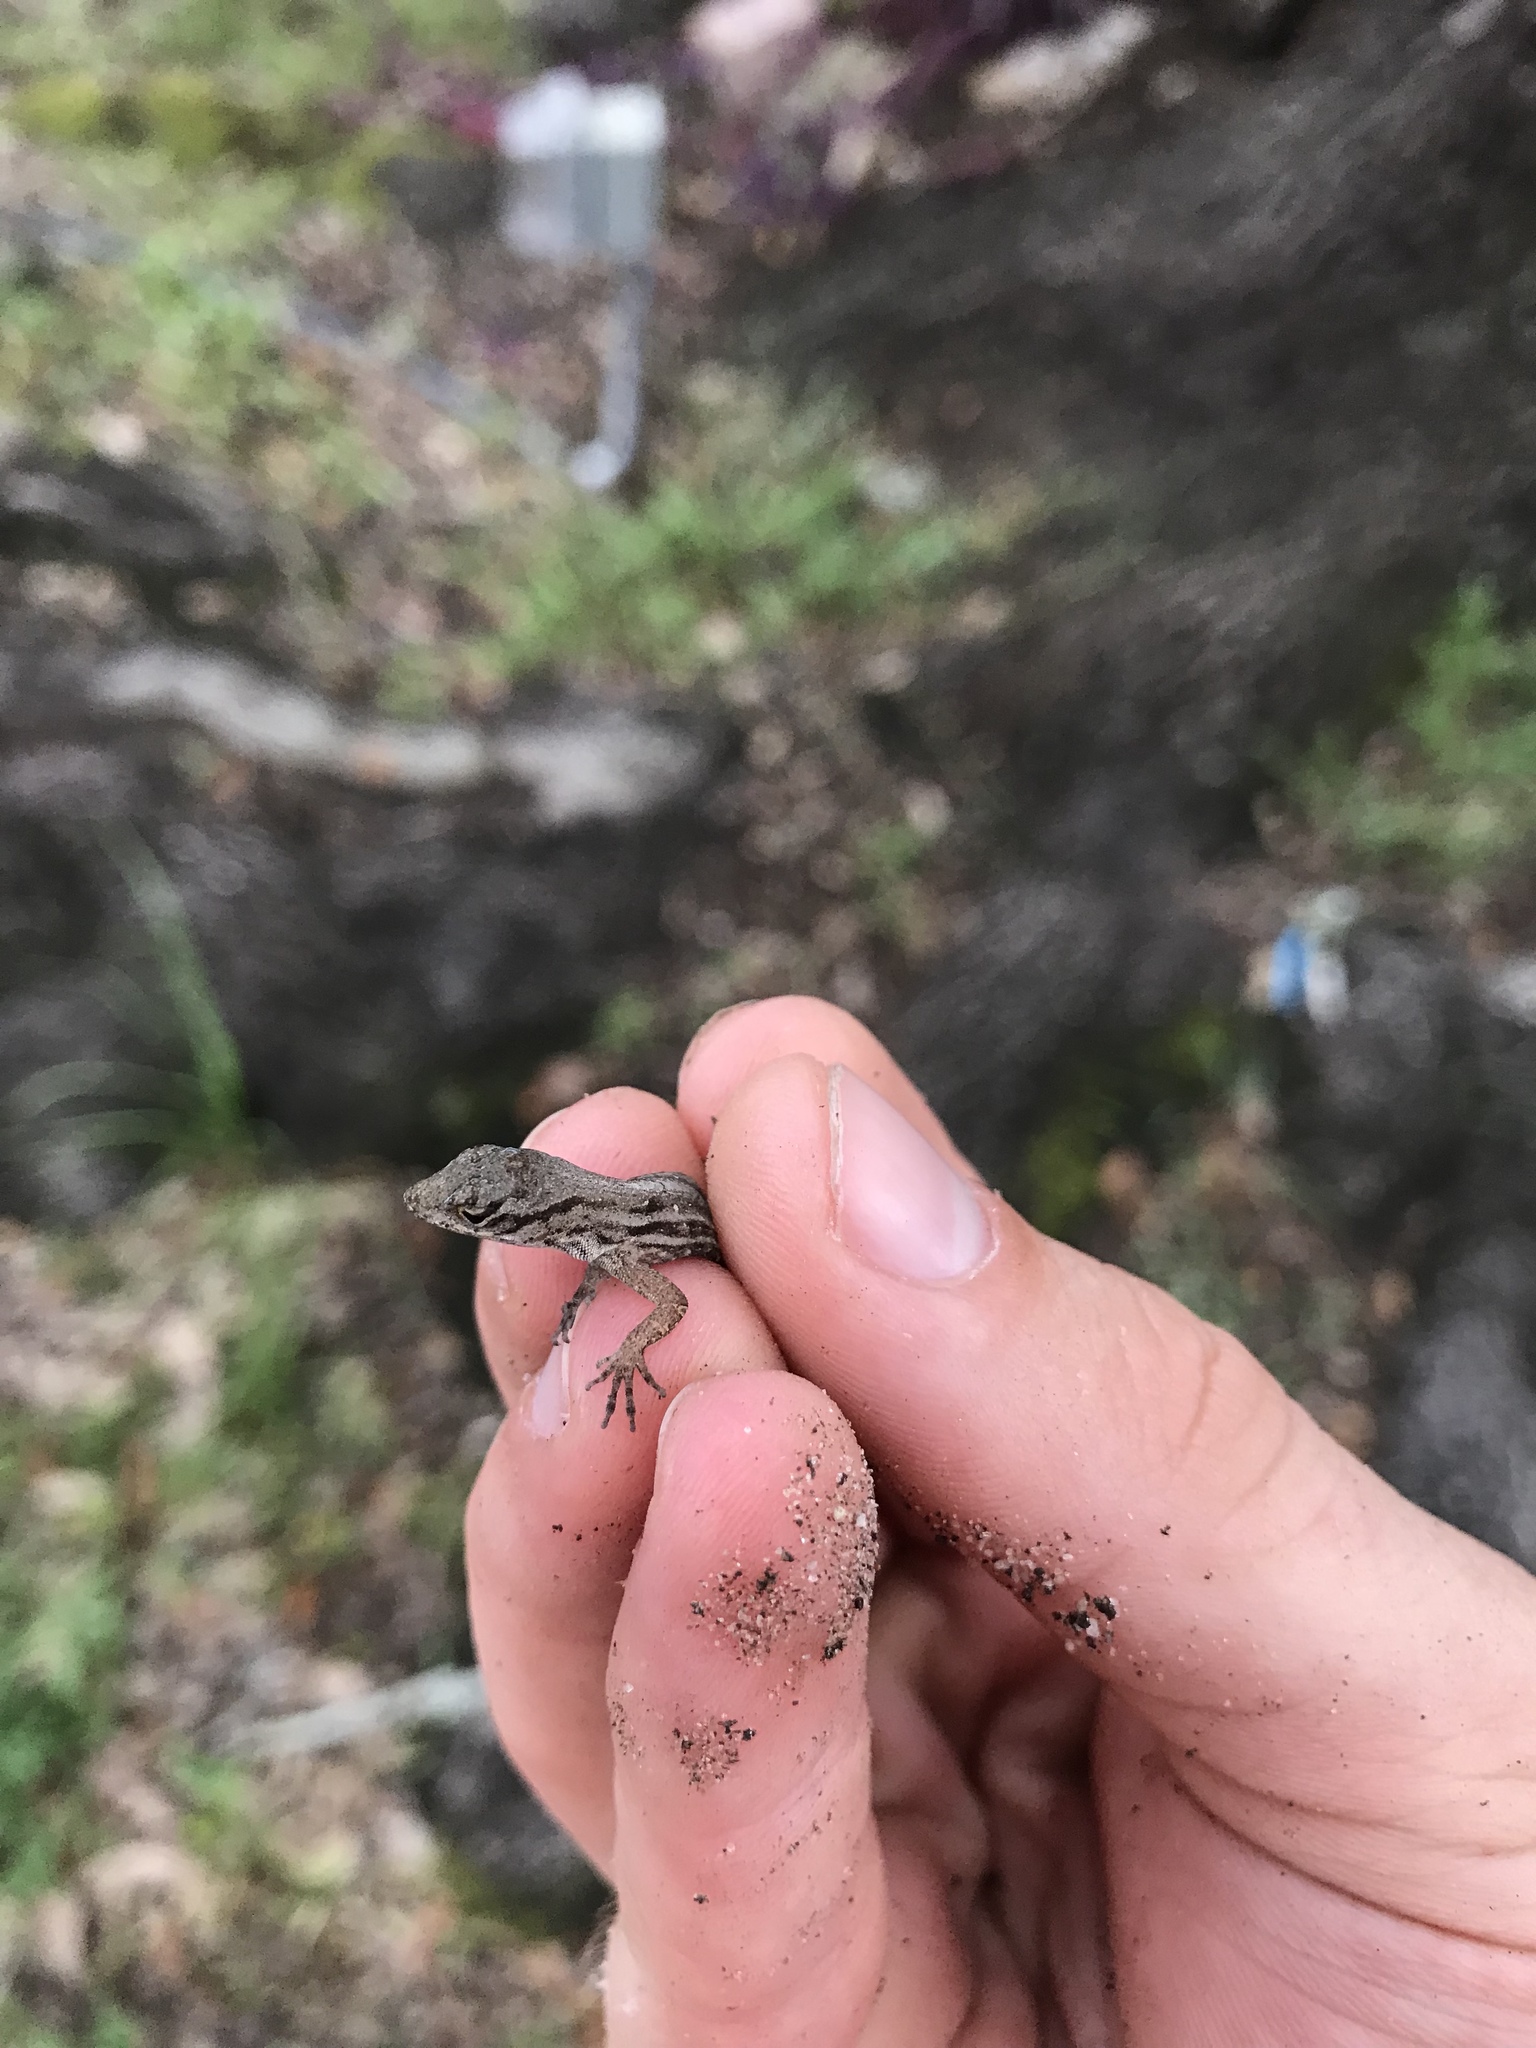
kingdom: Animalia
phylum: Chordata
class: Squamata
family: Dactyloidae
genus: Anolis
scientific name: Anolis sagrei
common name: Brown anole
